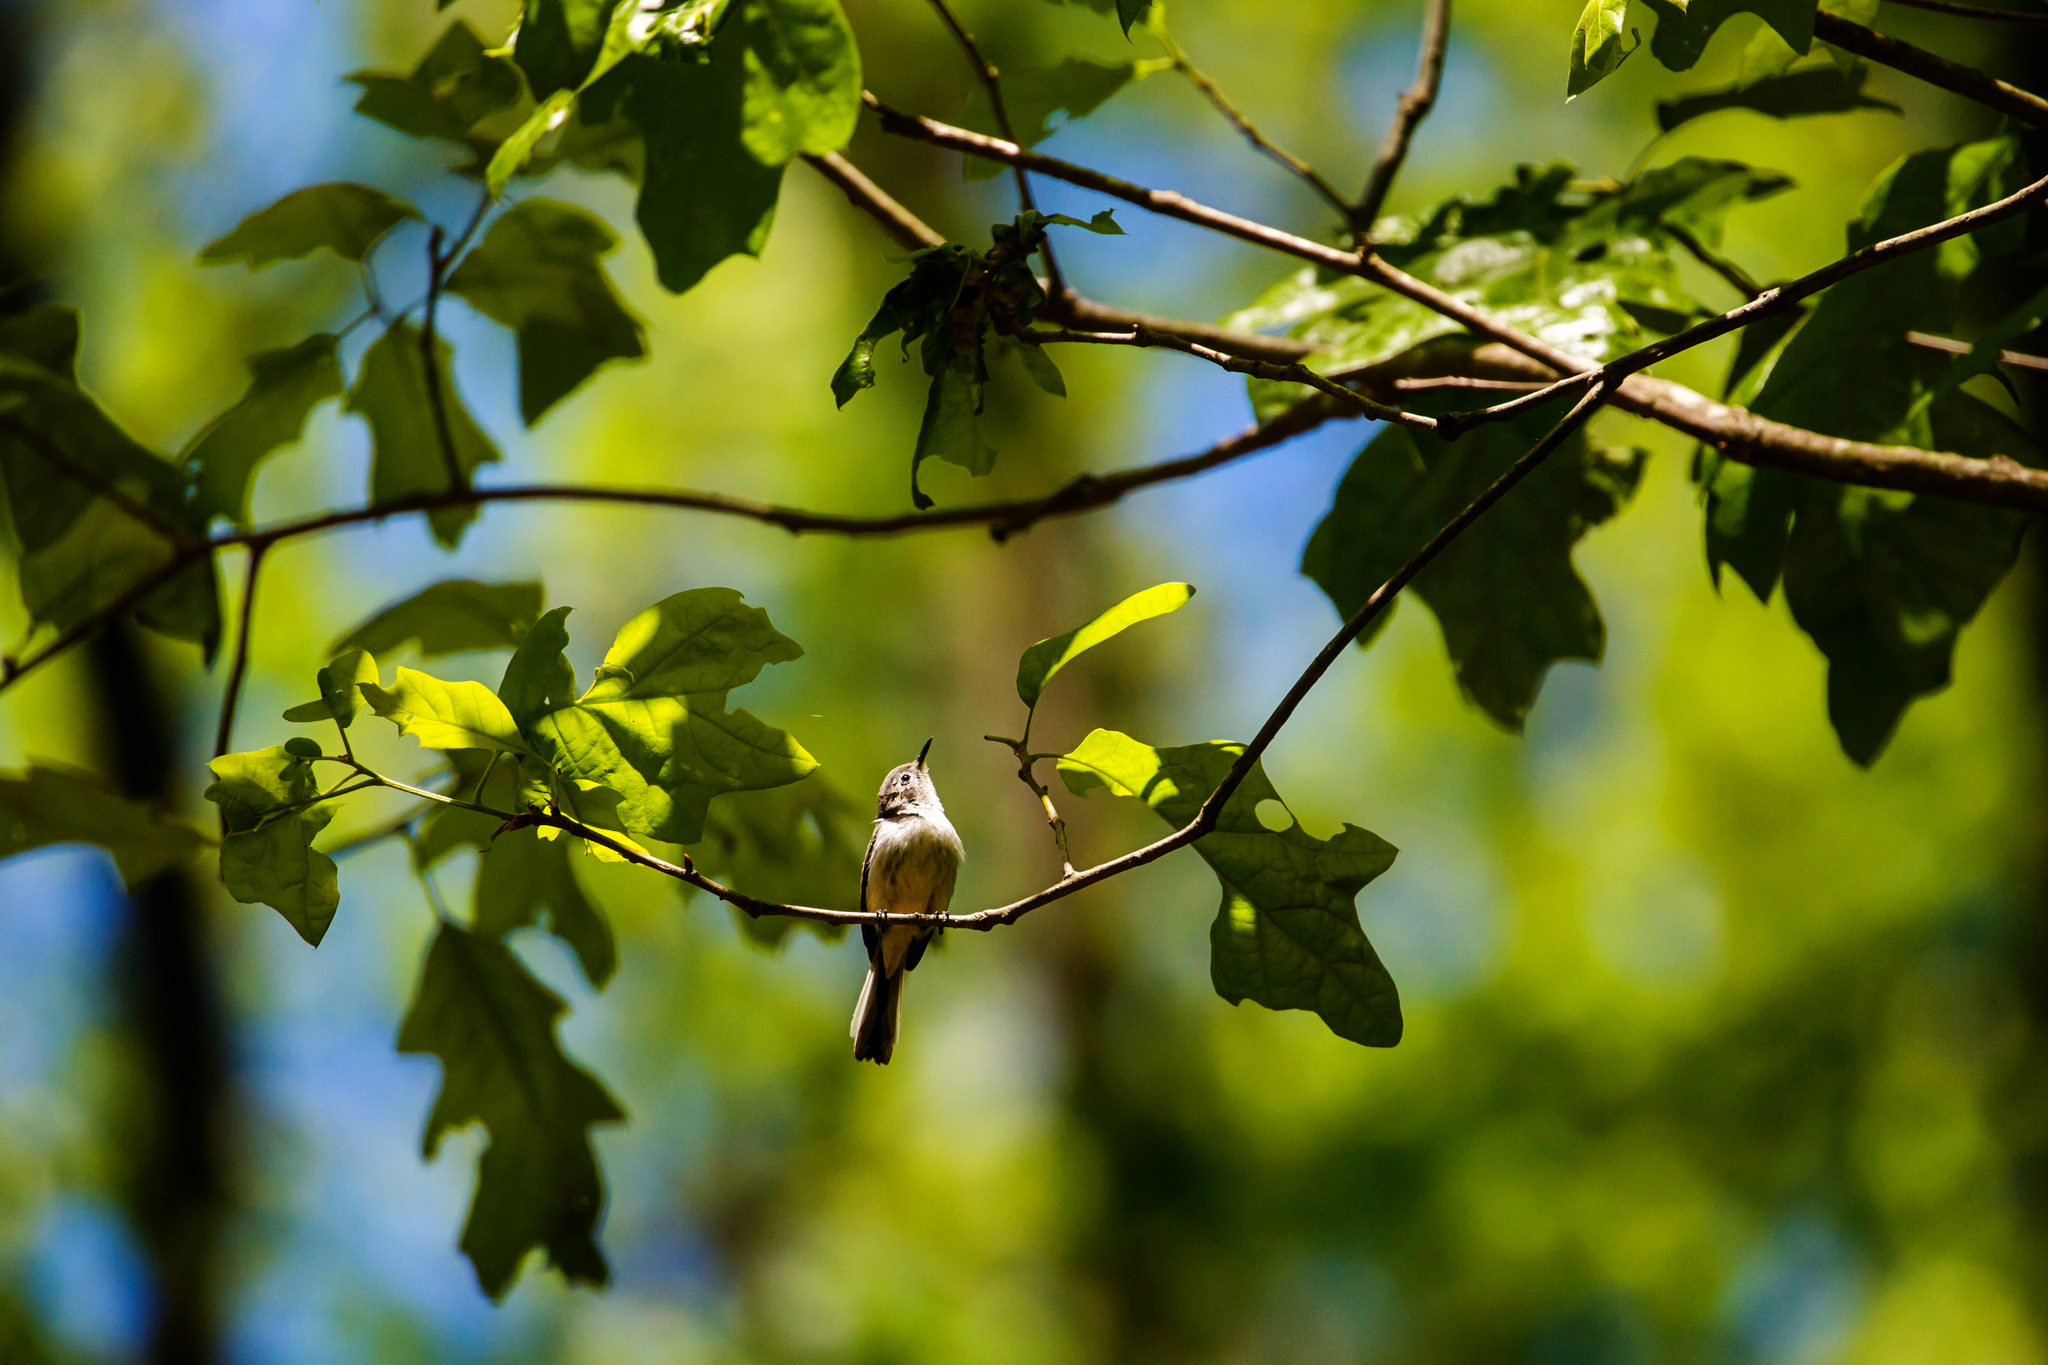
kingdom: Animalia
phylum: Chordata
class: Aves
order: Passeriformes
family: Polioptilidae
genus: Polioptila
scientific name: Polioptila caerulea
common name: Blue-gray gnatcatcher
